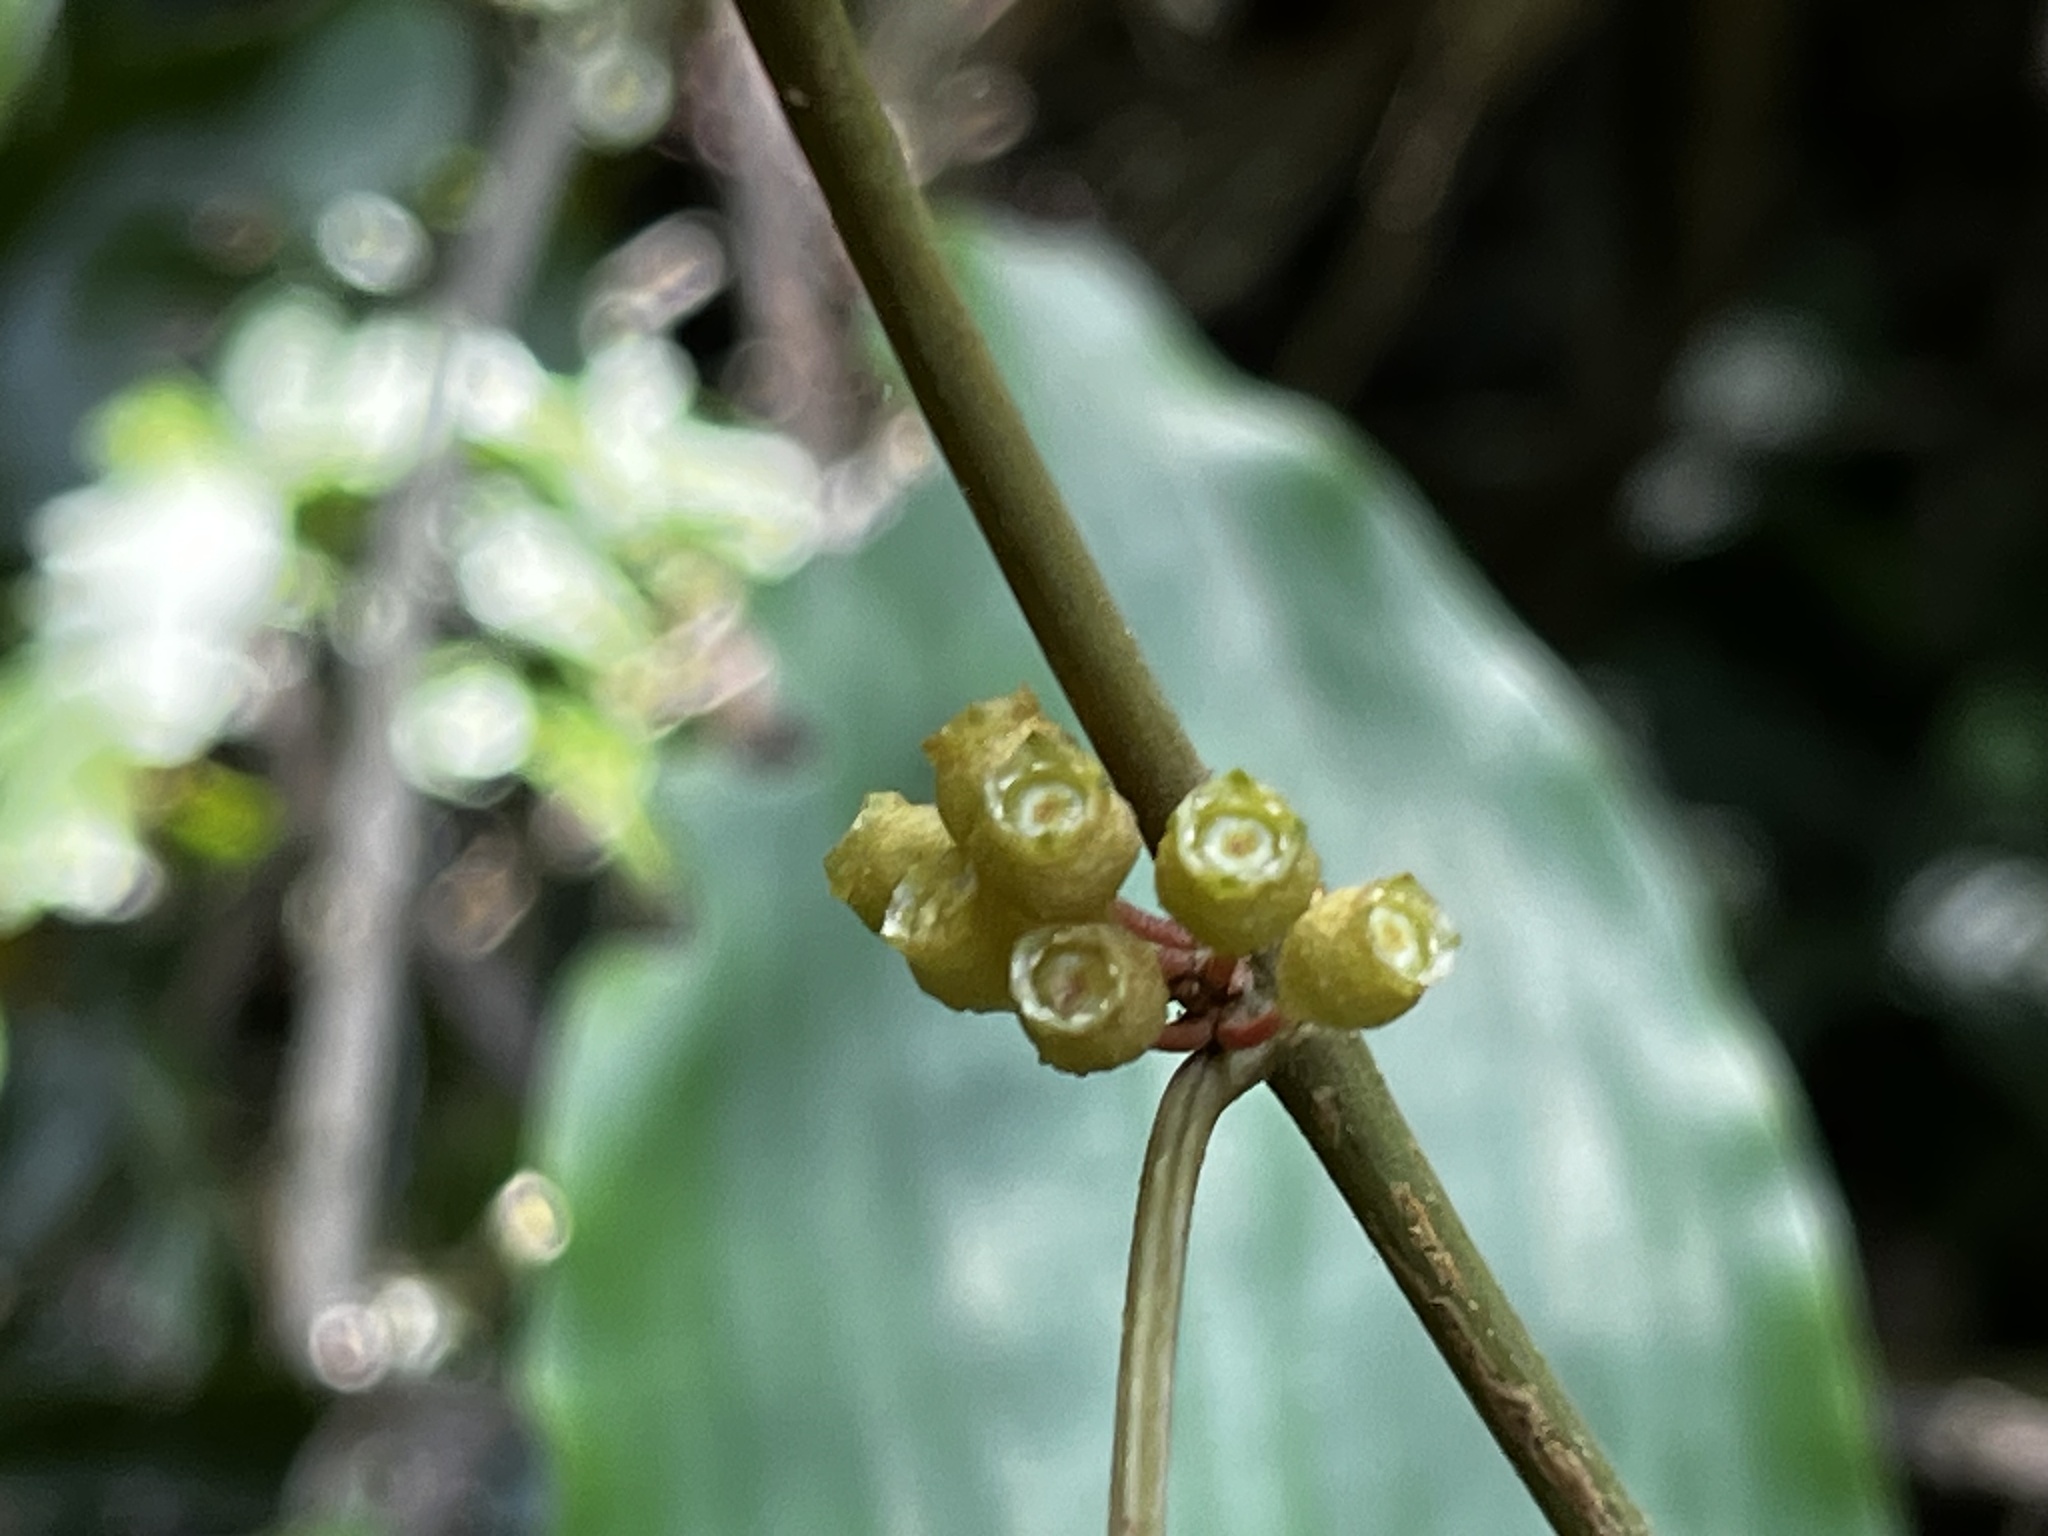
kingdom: Plantae
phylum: Tracheophyta
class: Magnoliopsida
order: Myrtales
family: Melastomataceae
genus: Blastus
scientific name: Blastus cochinchinensis
